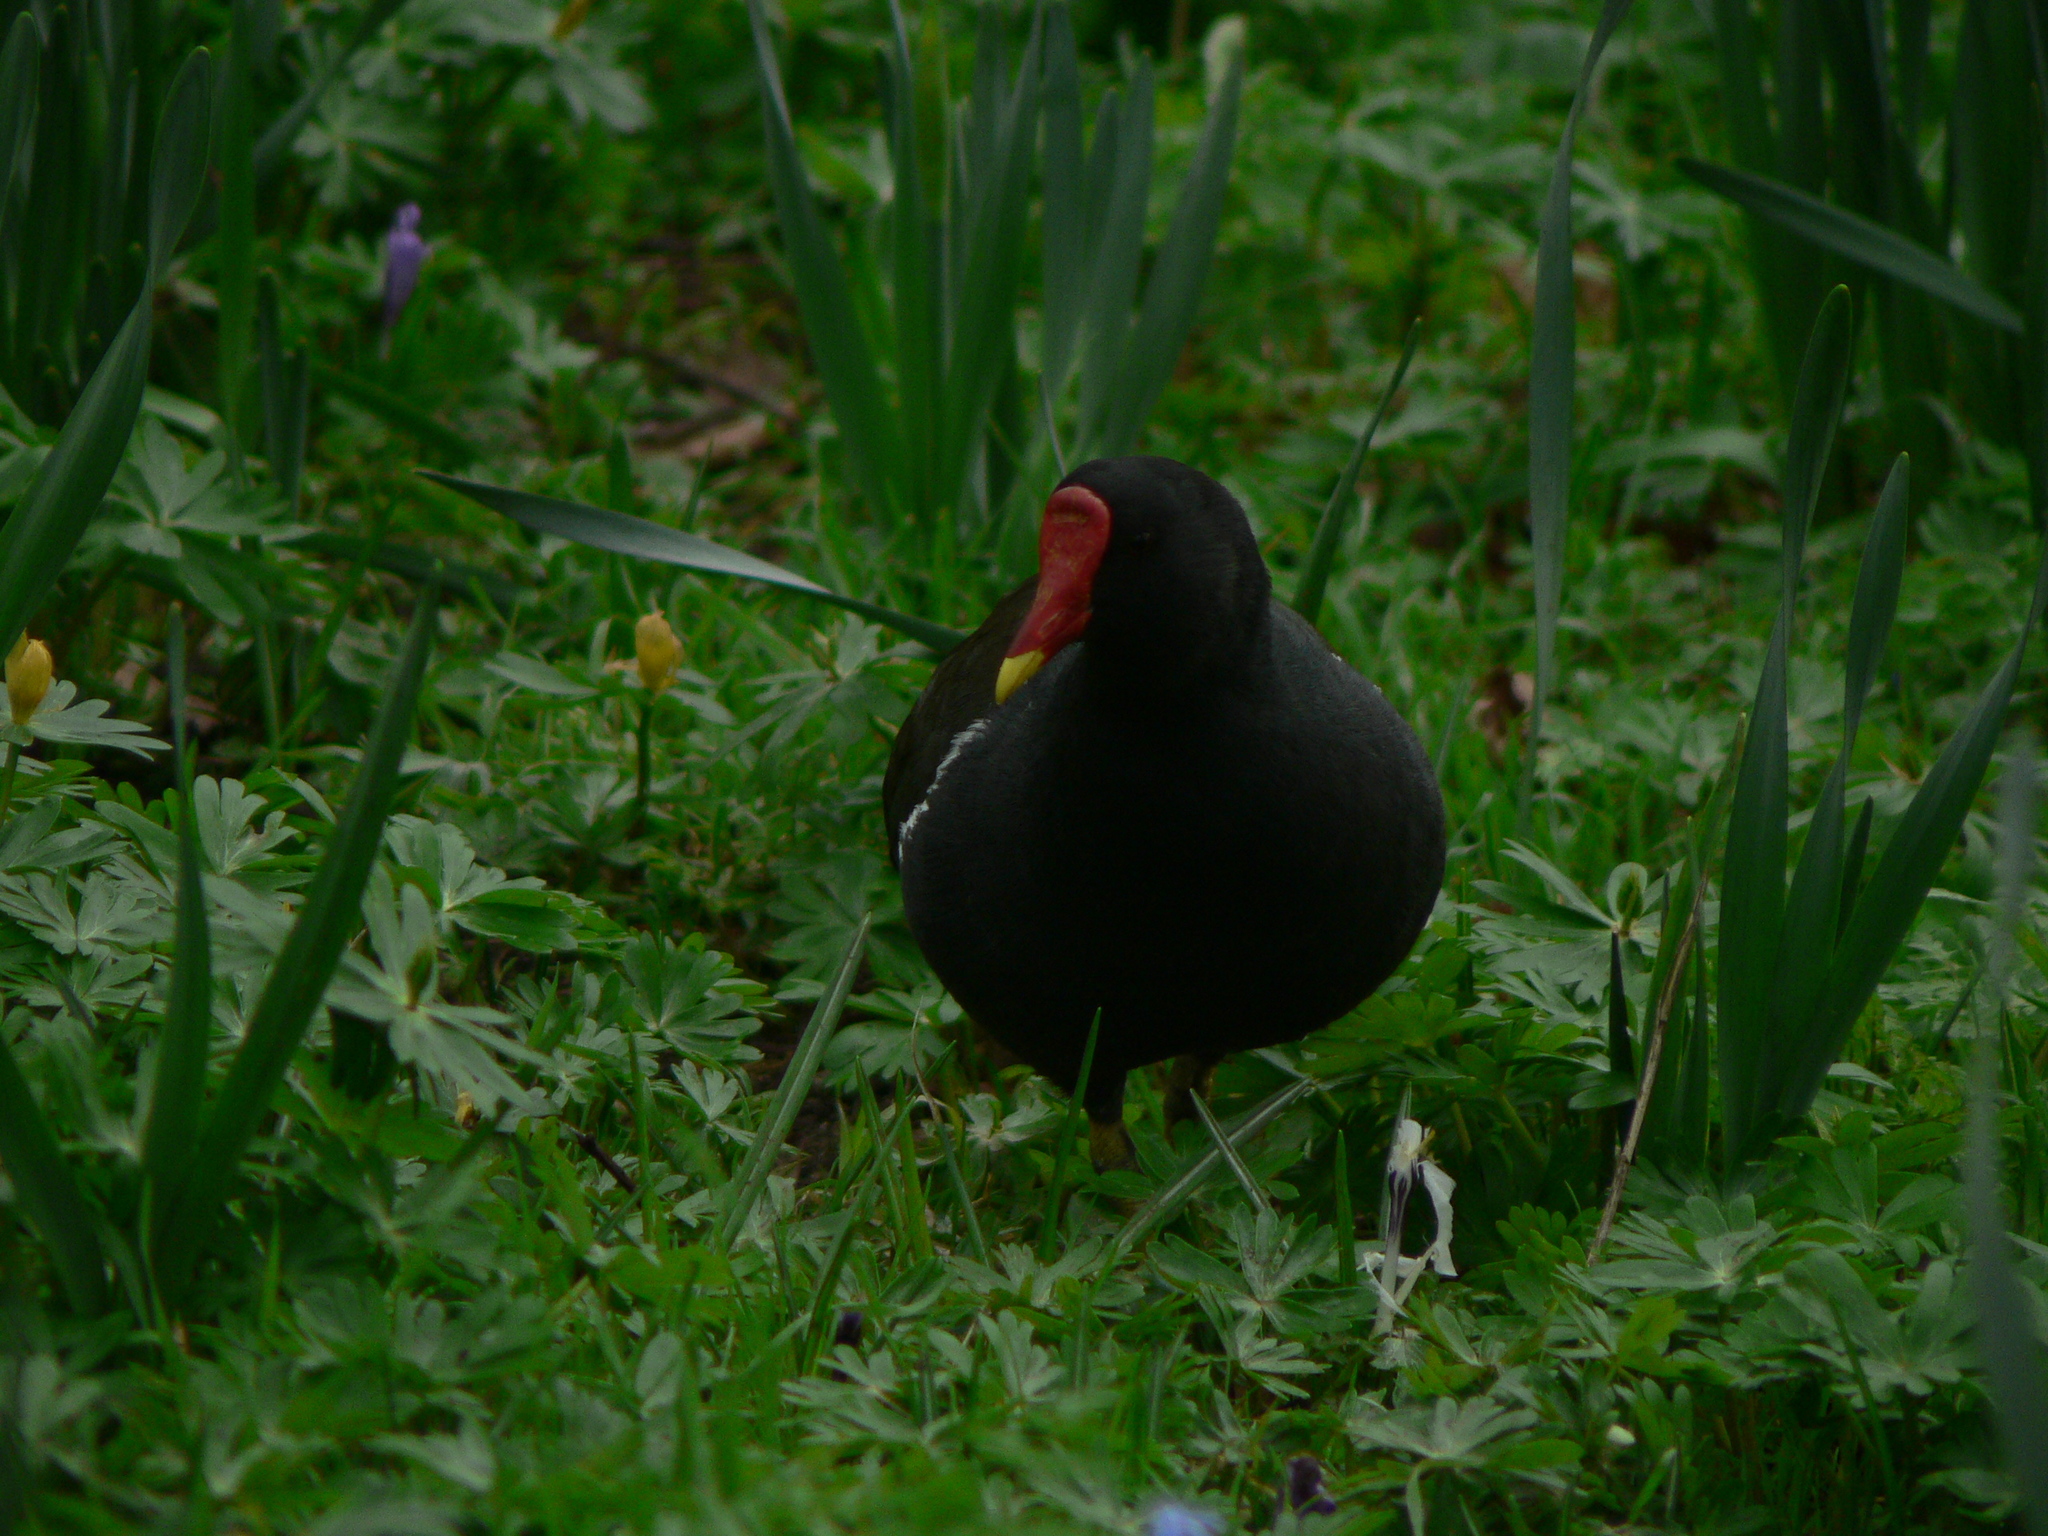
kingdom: Animalia
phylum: Chordata
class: Aves
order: Gruiformes
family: Rallidae
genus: Gallinula
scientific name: Gallinula chloropus
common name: Common moorhen
